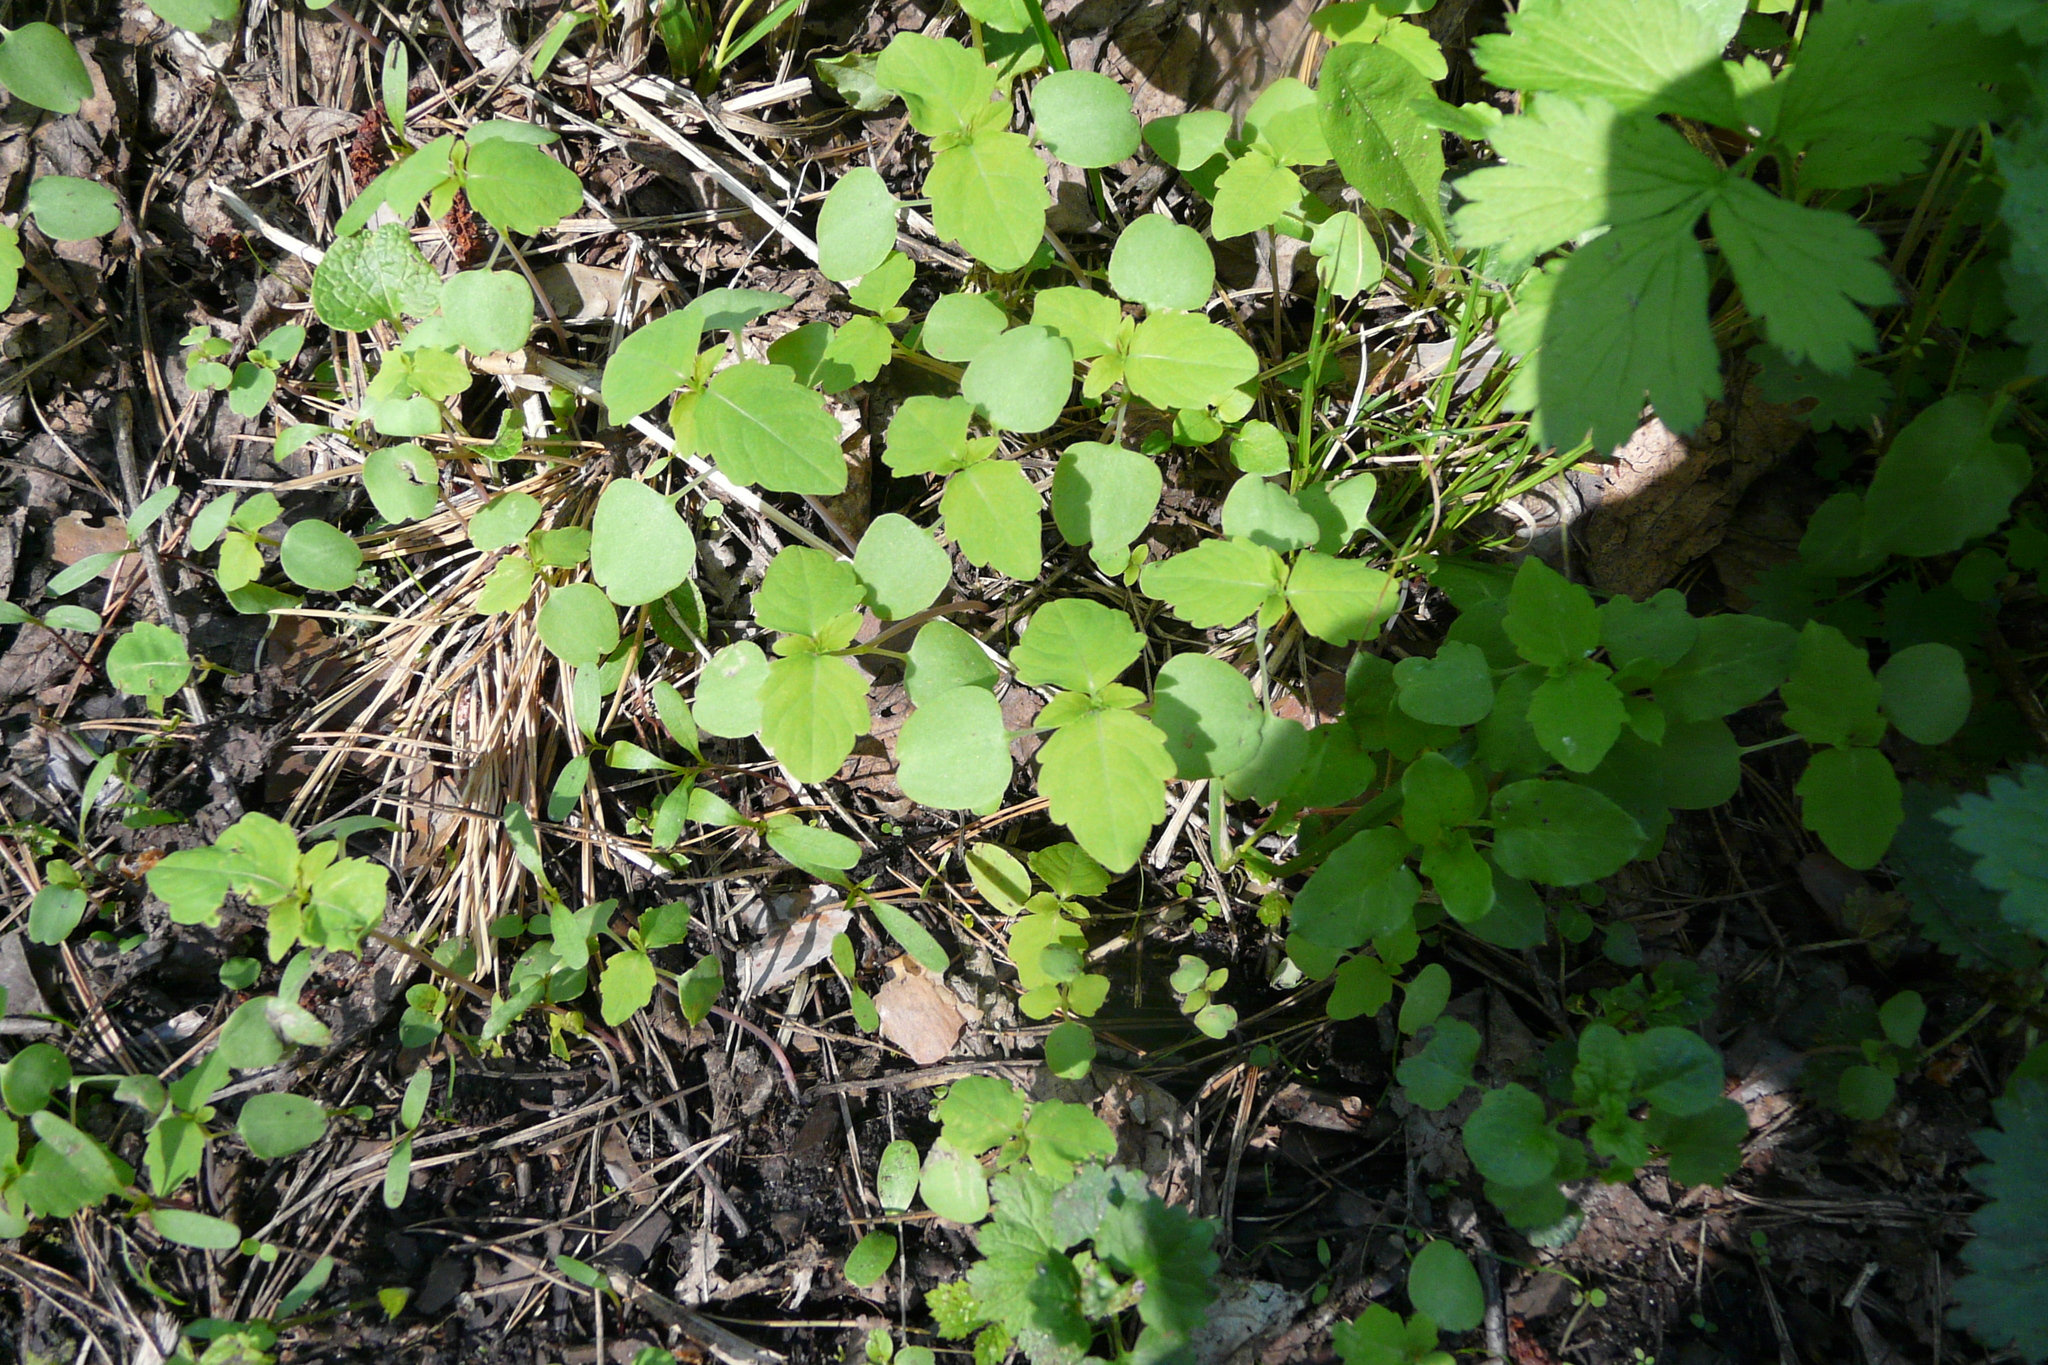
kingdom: Plantae
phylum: Tracheophyta
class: Magnoliopsida
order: Ericales
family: Balsaminaceae
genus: Impatiens
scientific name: Impatiens noli-tangere
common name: Touch-me-not balsam
